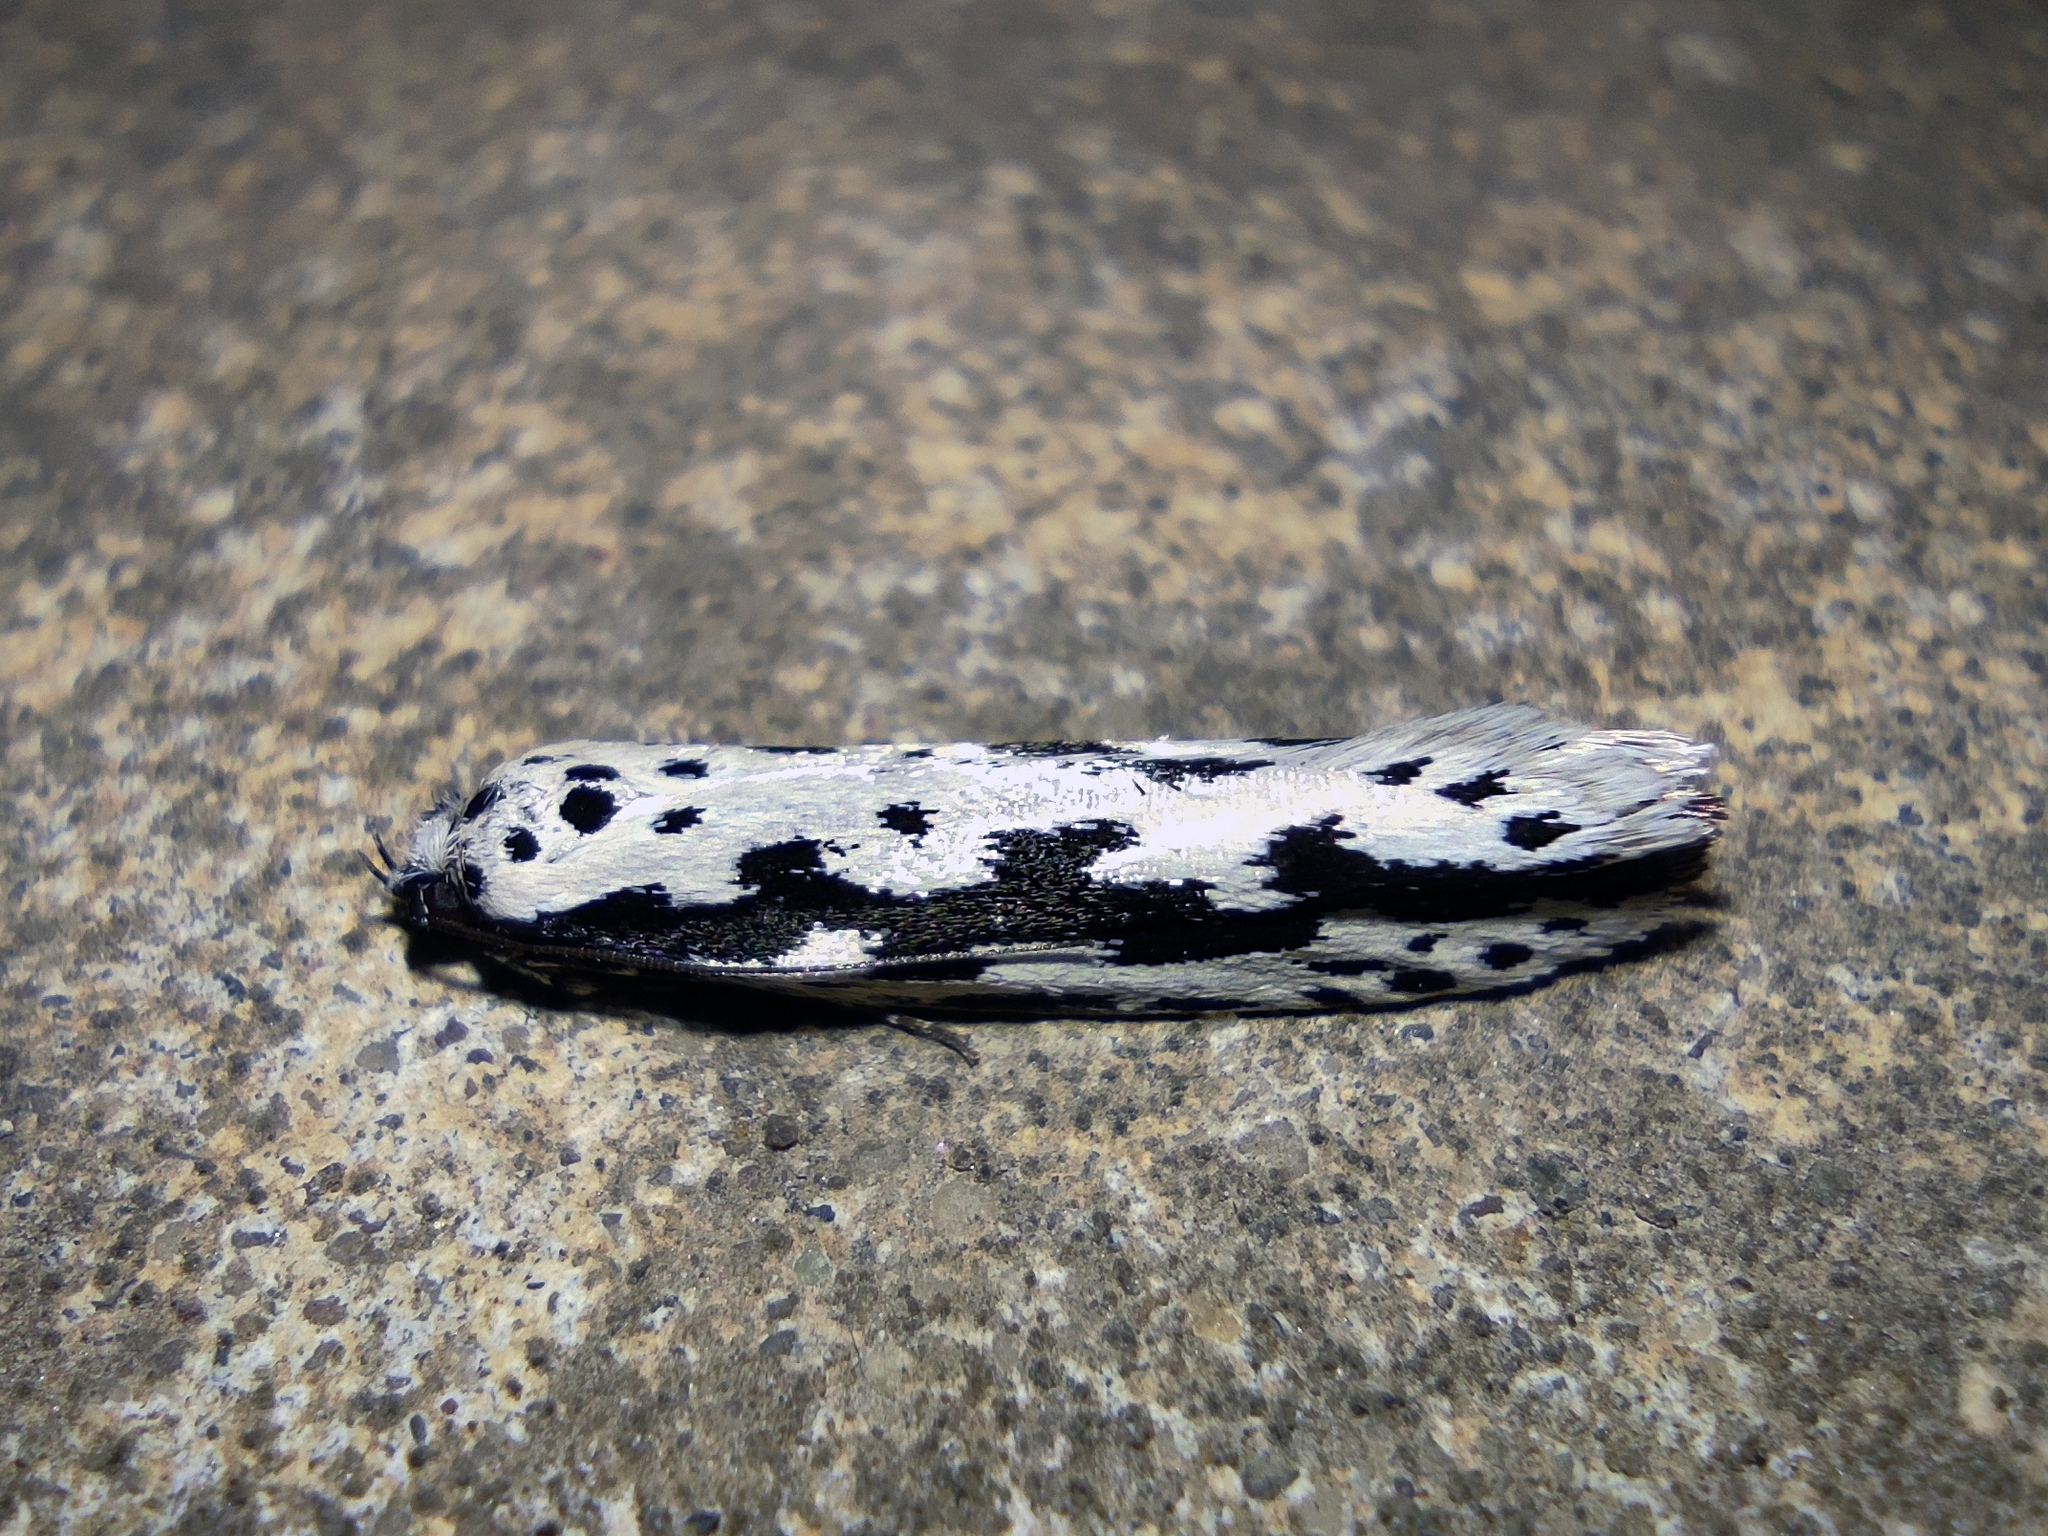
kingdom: Animalia
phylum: Arthropoda
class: Insecta
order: Lepidoptera
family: Ethmiidae
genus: Ethmia
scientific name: Ethmia fumidella
